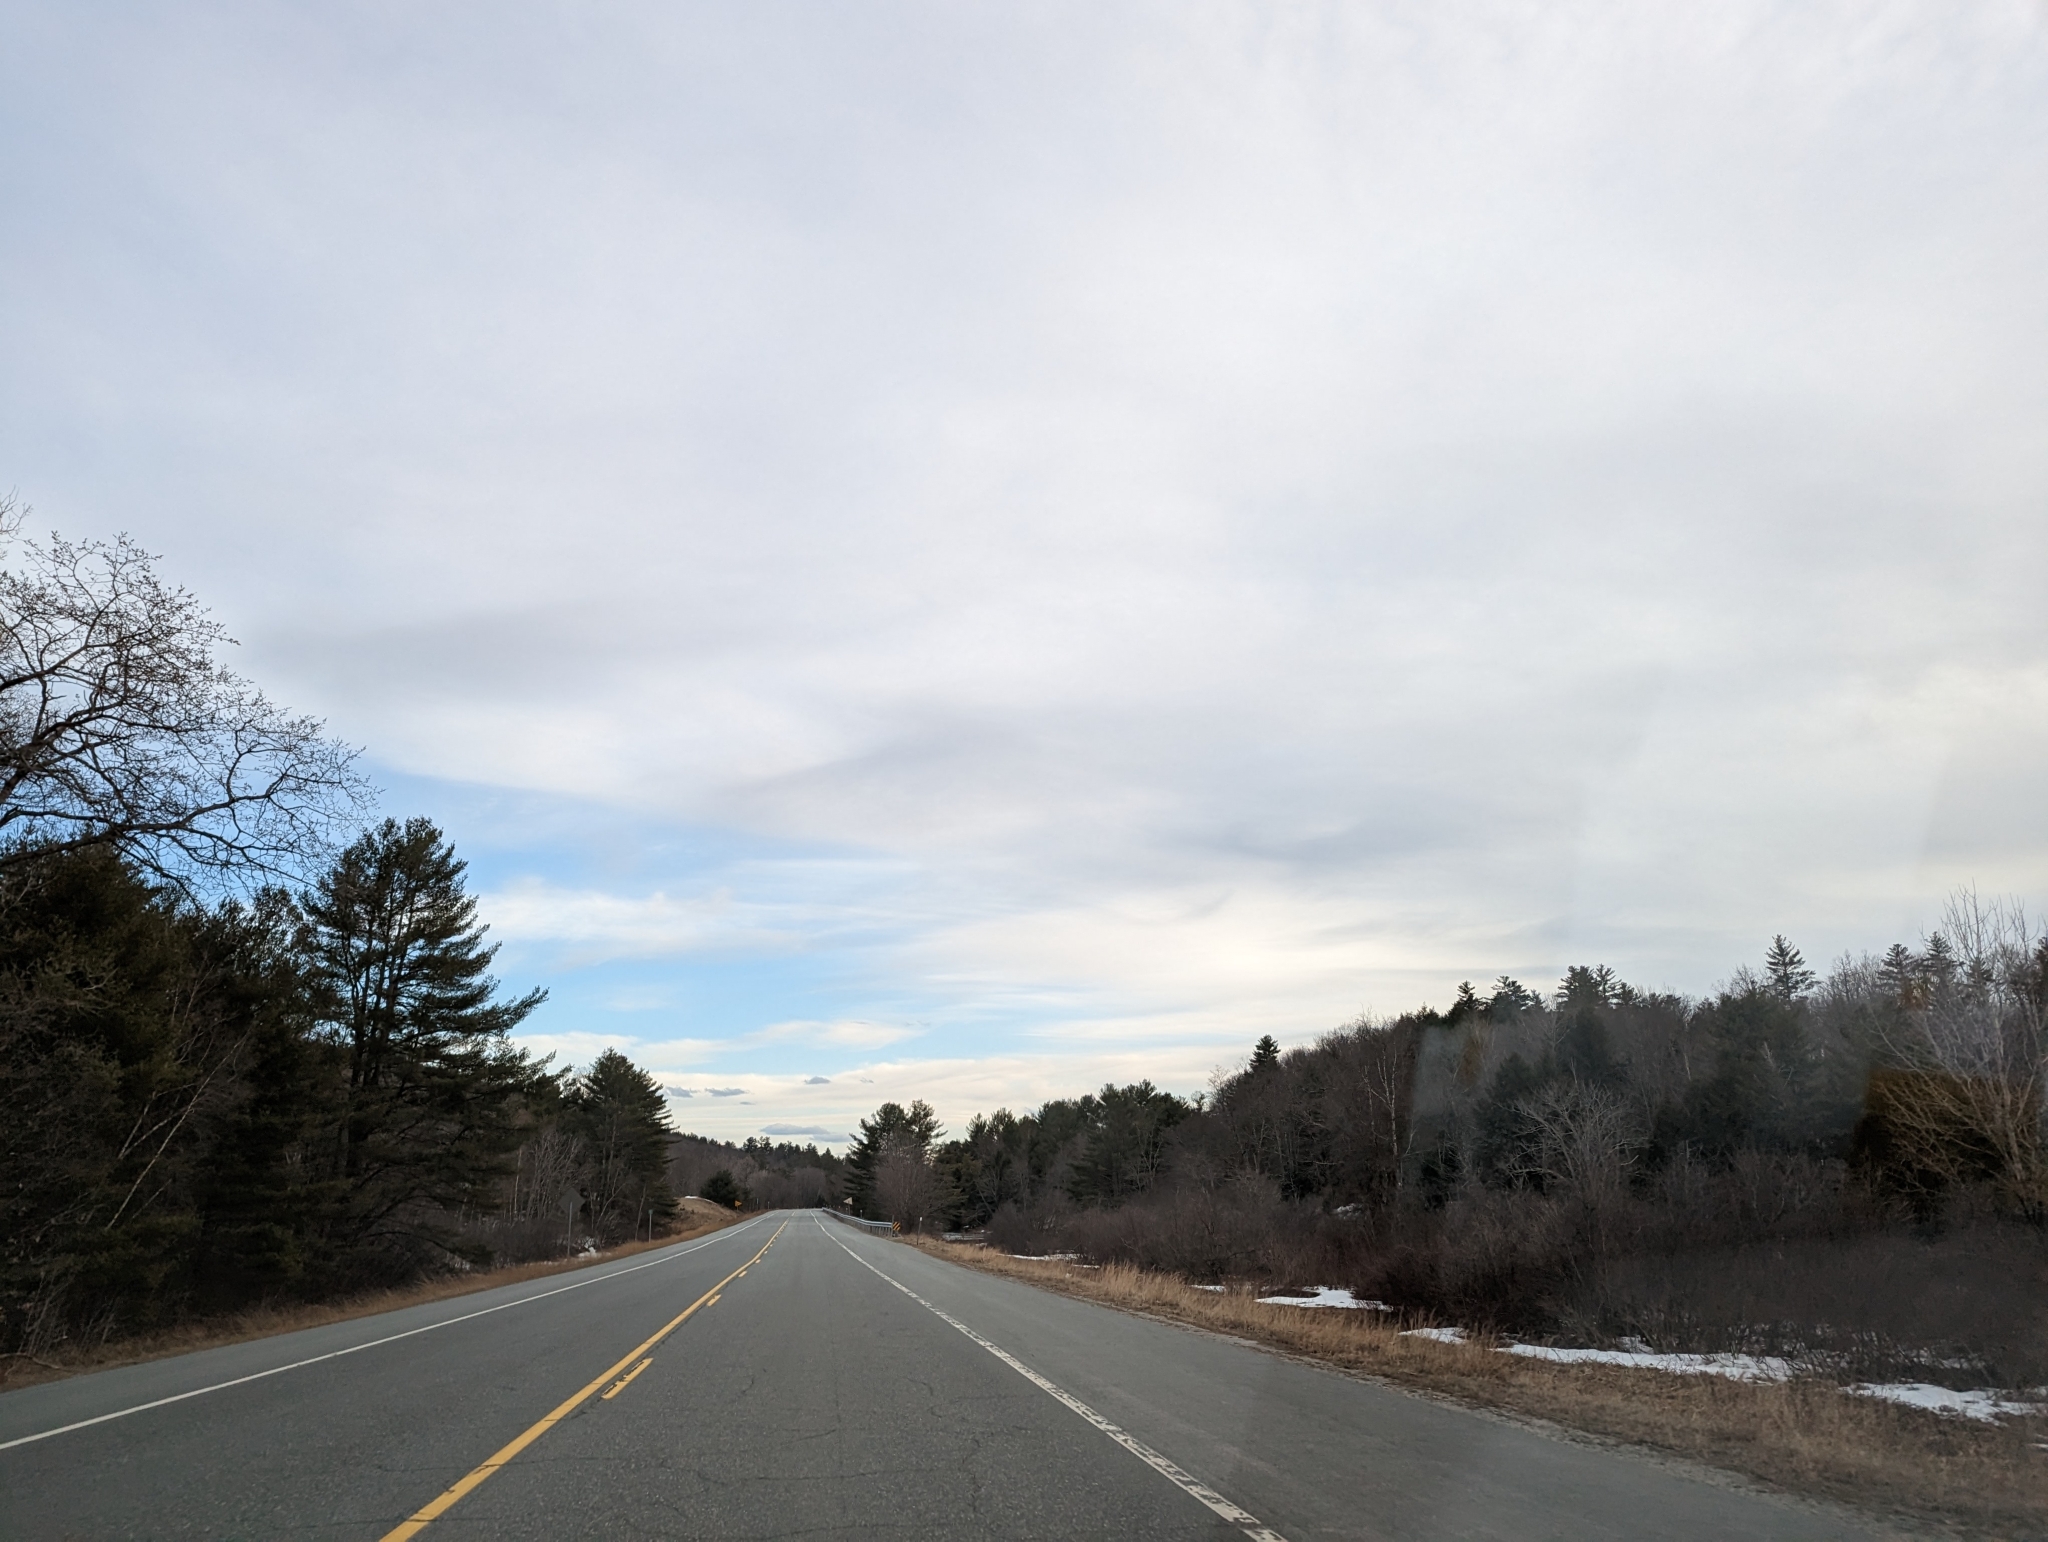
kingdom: Plantae
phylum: Tracheophyta
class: Pinopsida
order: Pinales
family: Pinaceae
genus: Pinus
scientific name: Pinus strobus
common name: Weymouth pine
